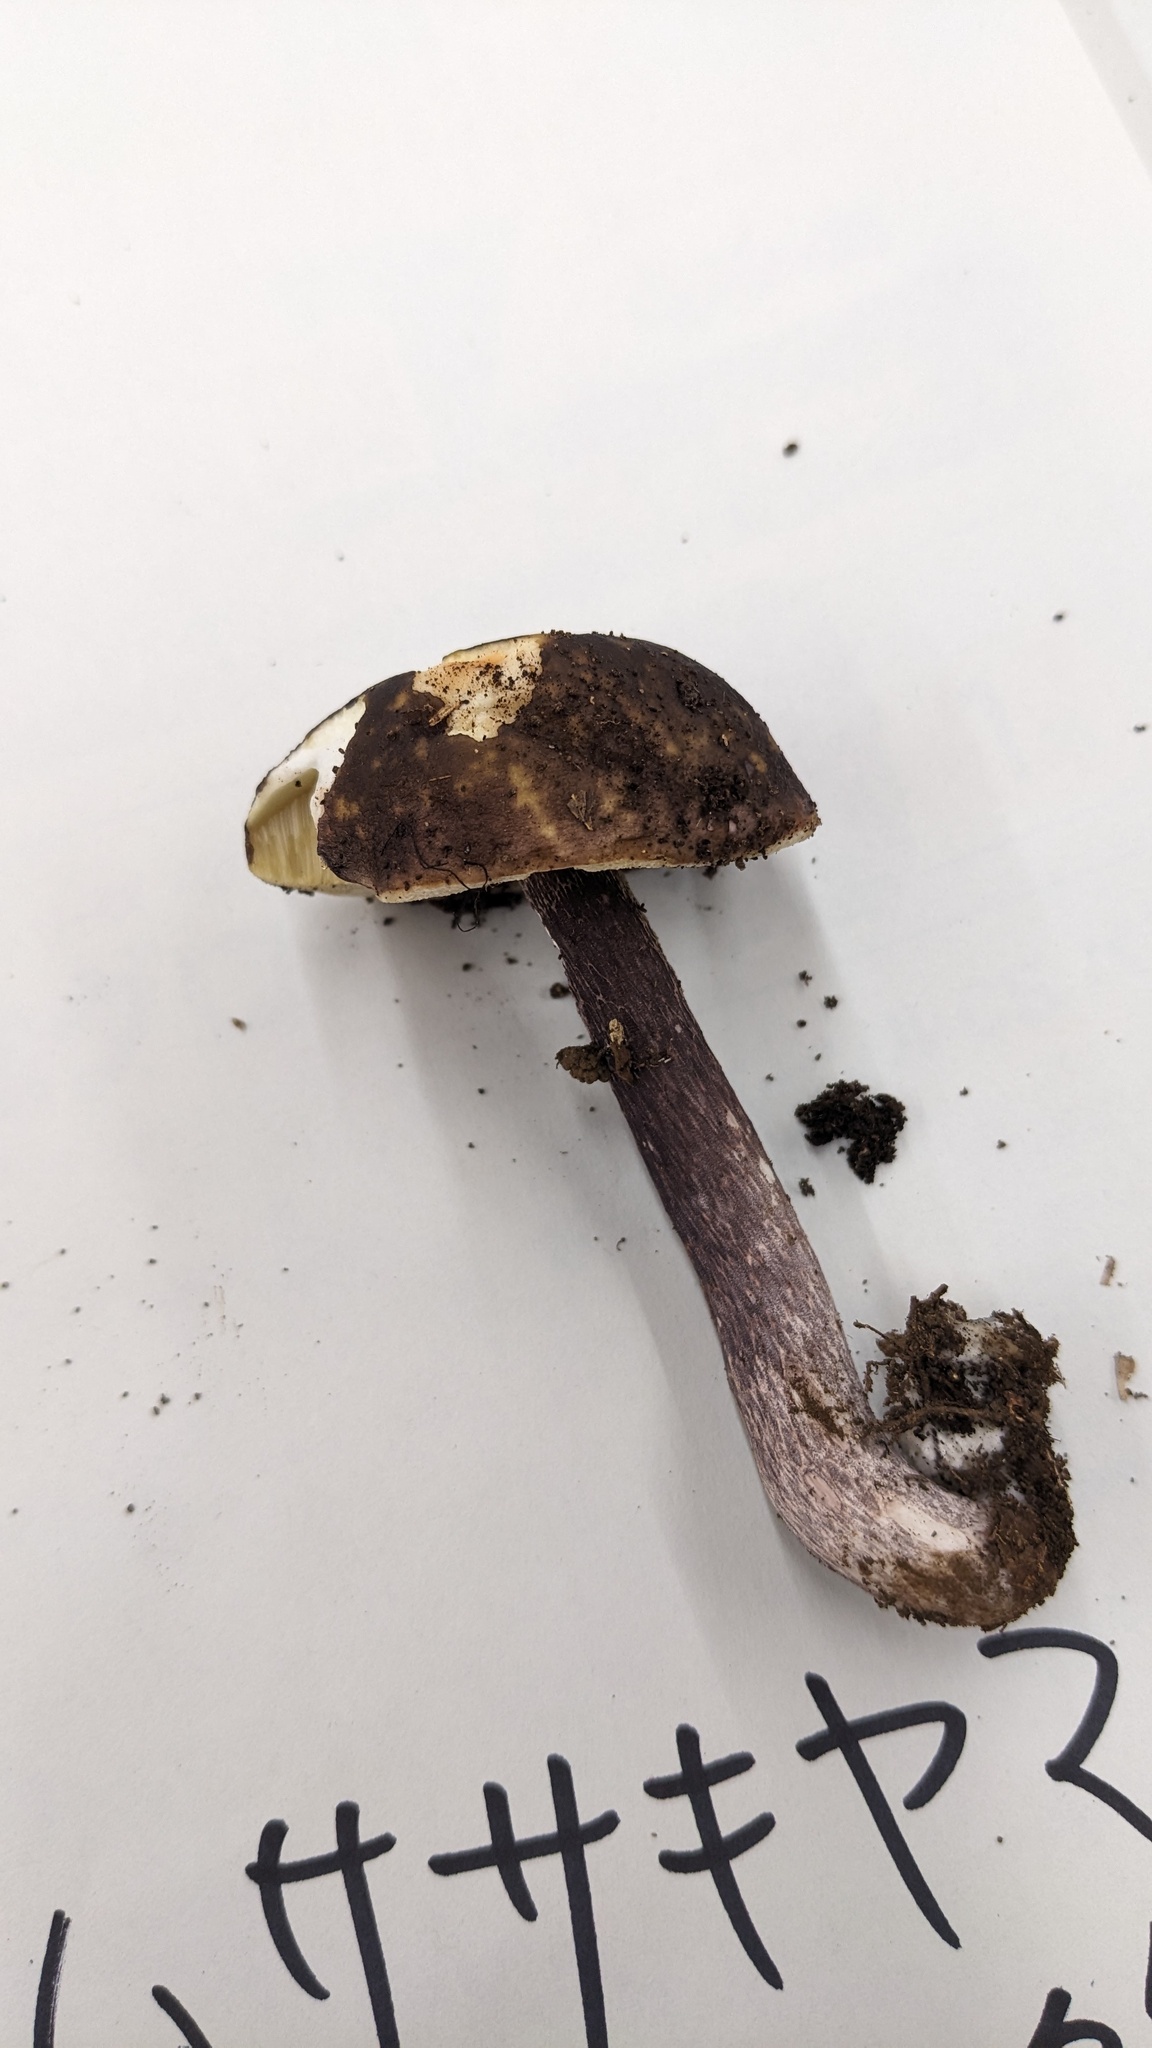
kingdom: Fungi
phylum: Basidiomycota
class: Agaricomycetes
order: Boletales
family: Boletaceae
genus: Boletus
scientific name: Boletus violaceofuscus
